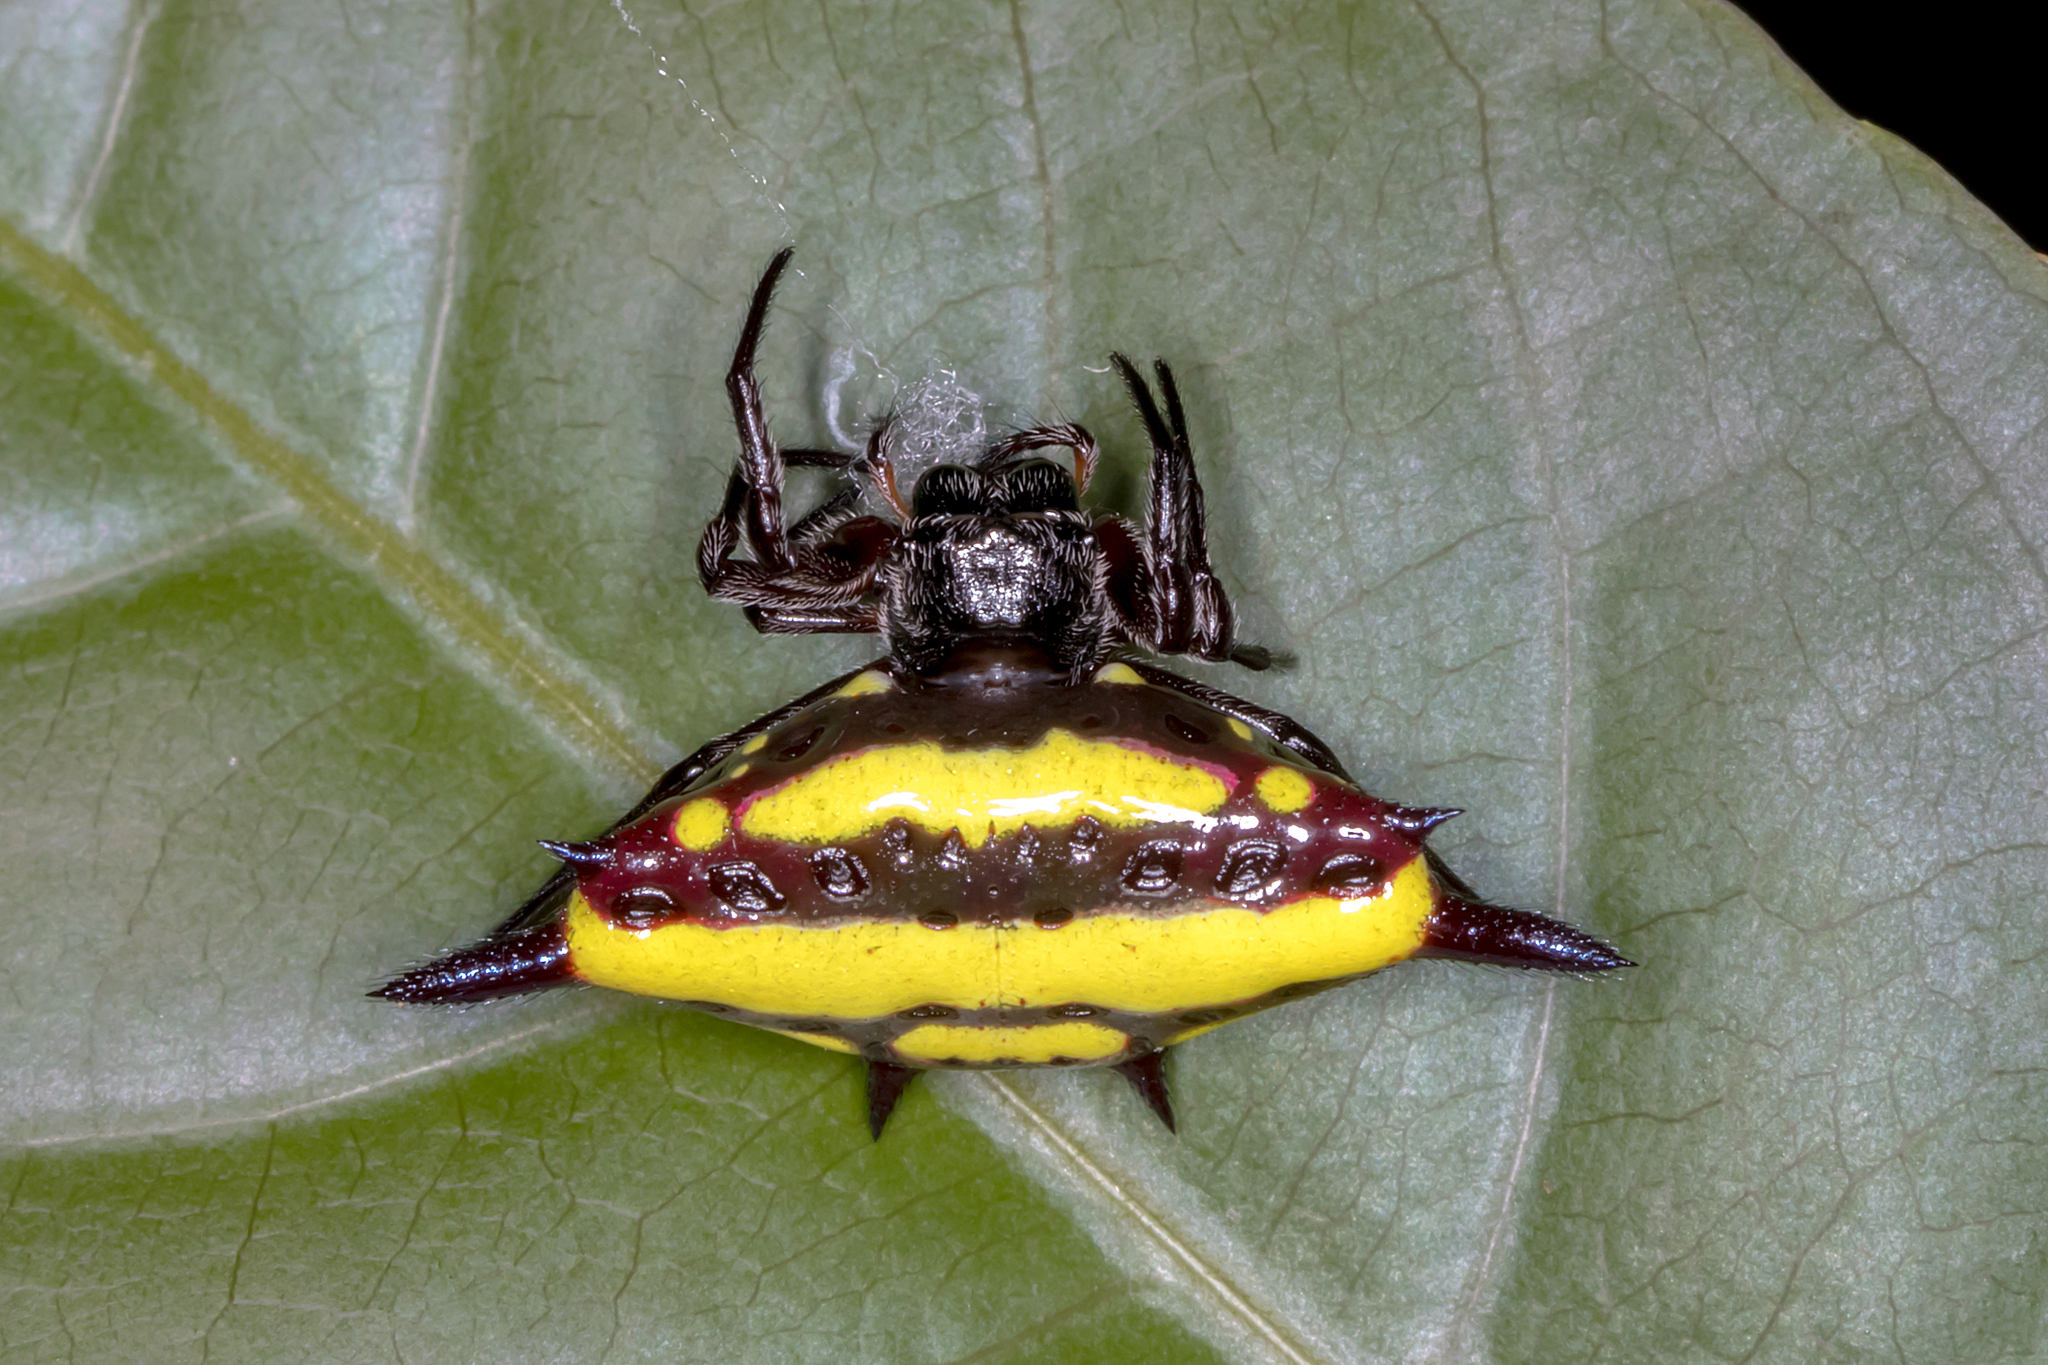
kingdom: Animalia
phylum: Arthropoda
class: Arachnida
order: Araneae
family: Araneidae
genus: Gasteracantha
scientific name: Gasteracantha fornicata
